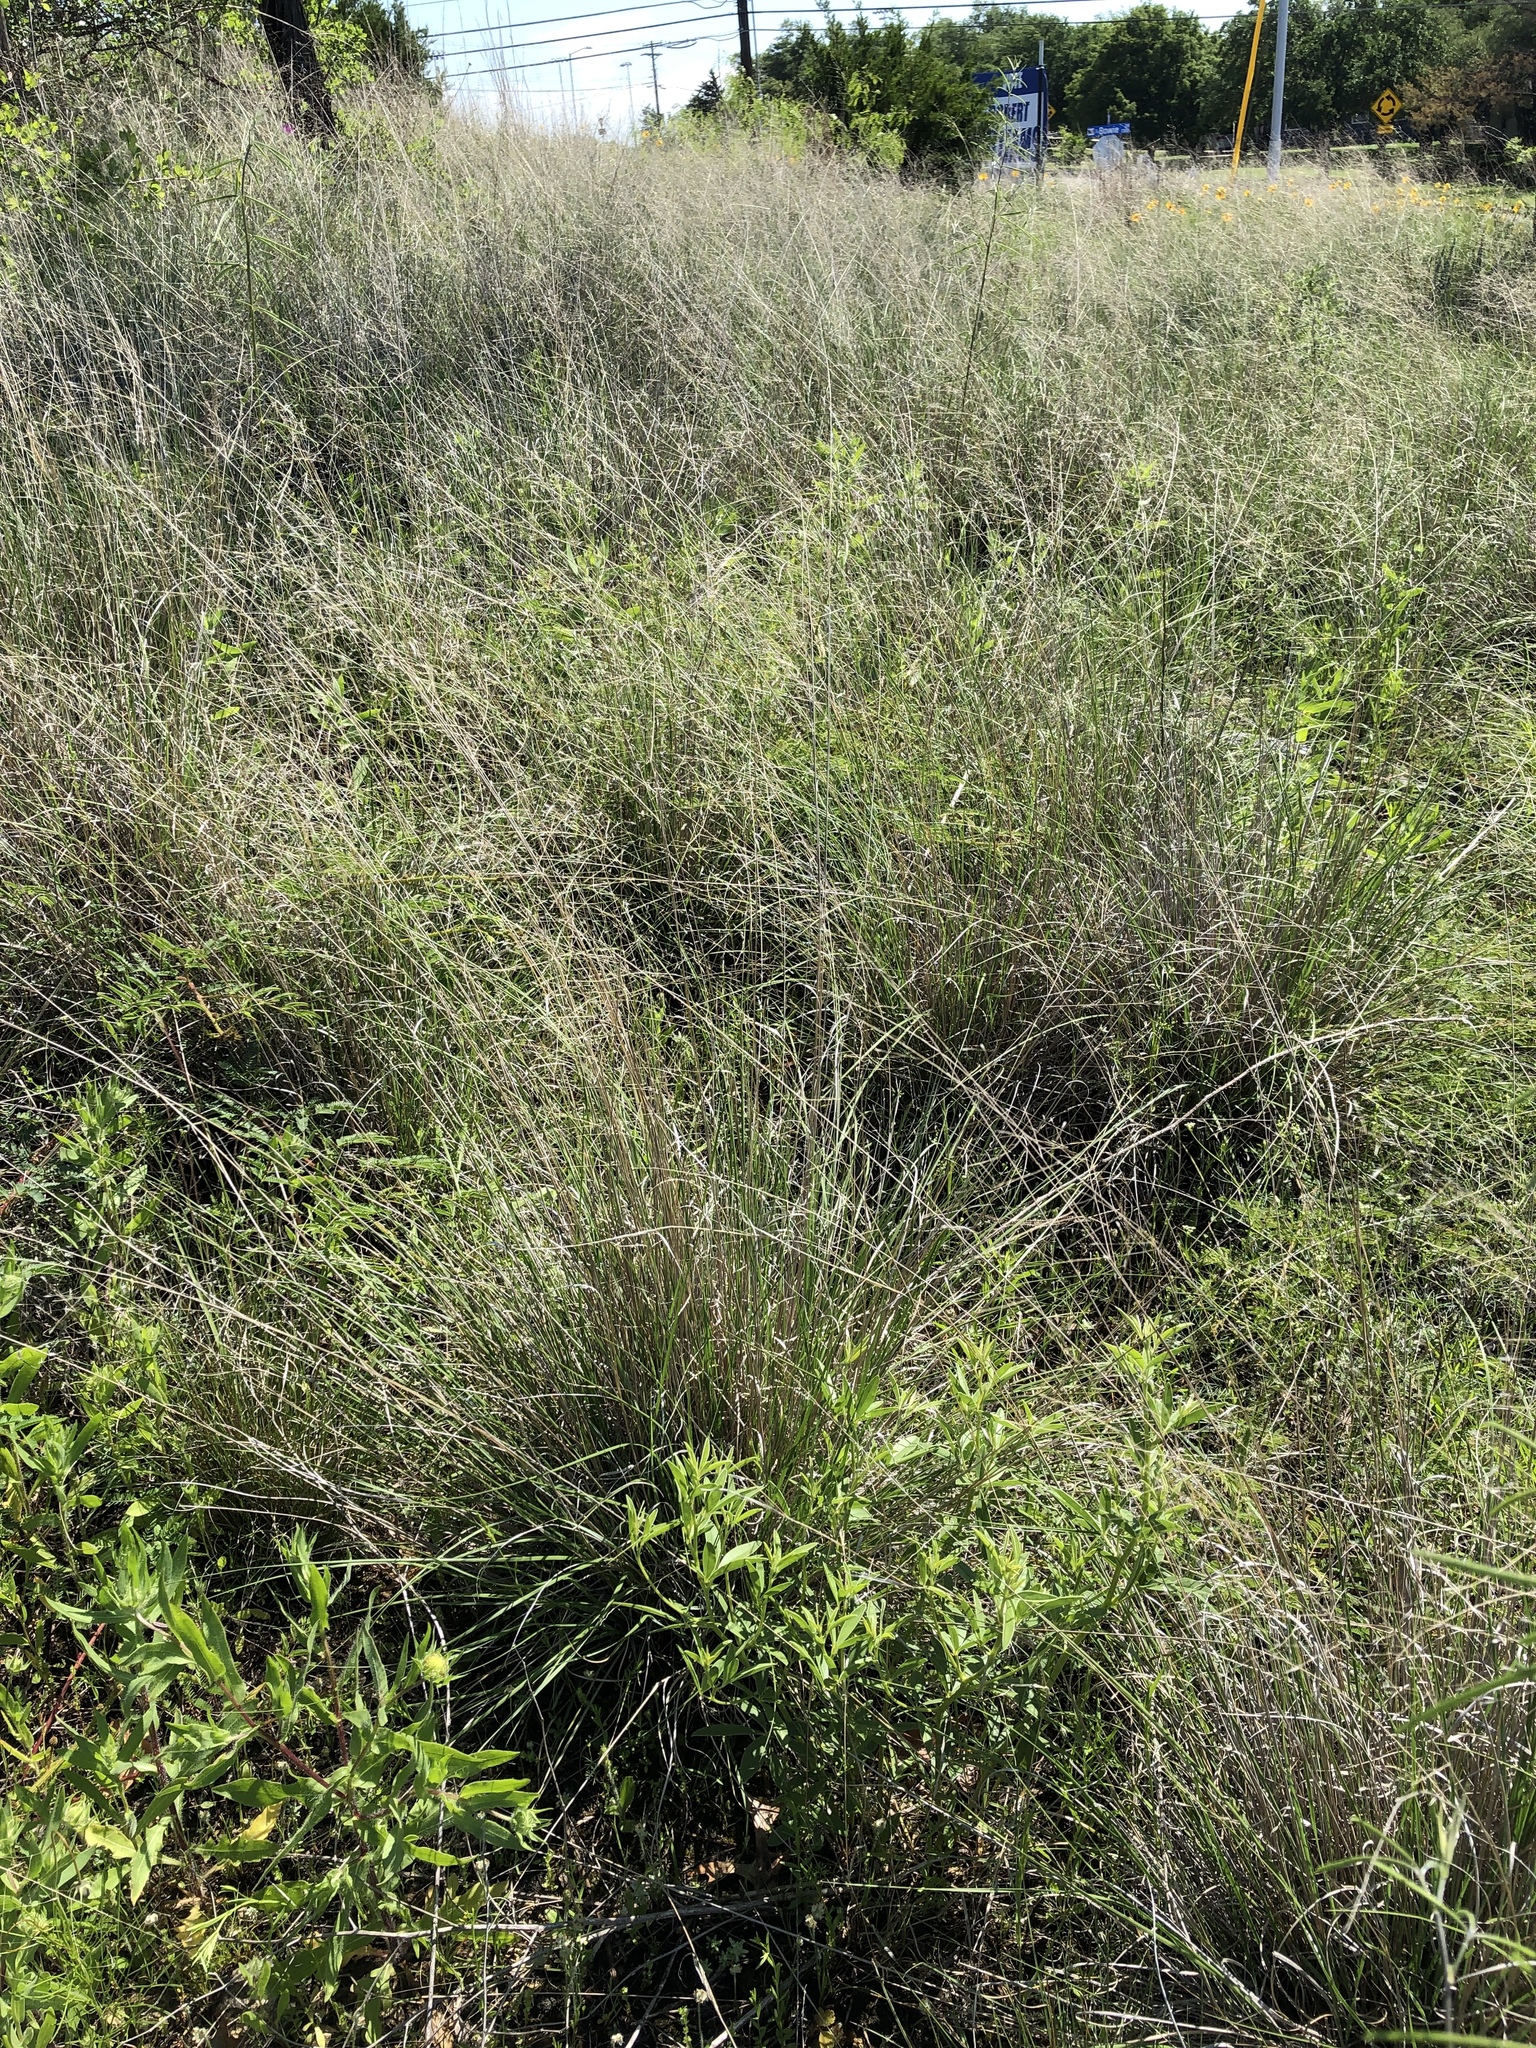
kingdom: Plantae
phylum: Tracheophyta
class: Liliopsida
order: Poales
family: Poaceae
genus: Muhlenbergia
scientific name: Muhlenbergia reverchonii
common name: Seep muhly
